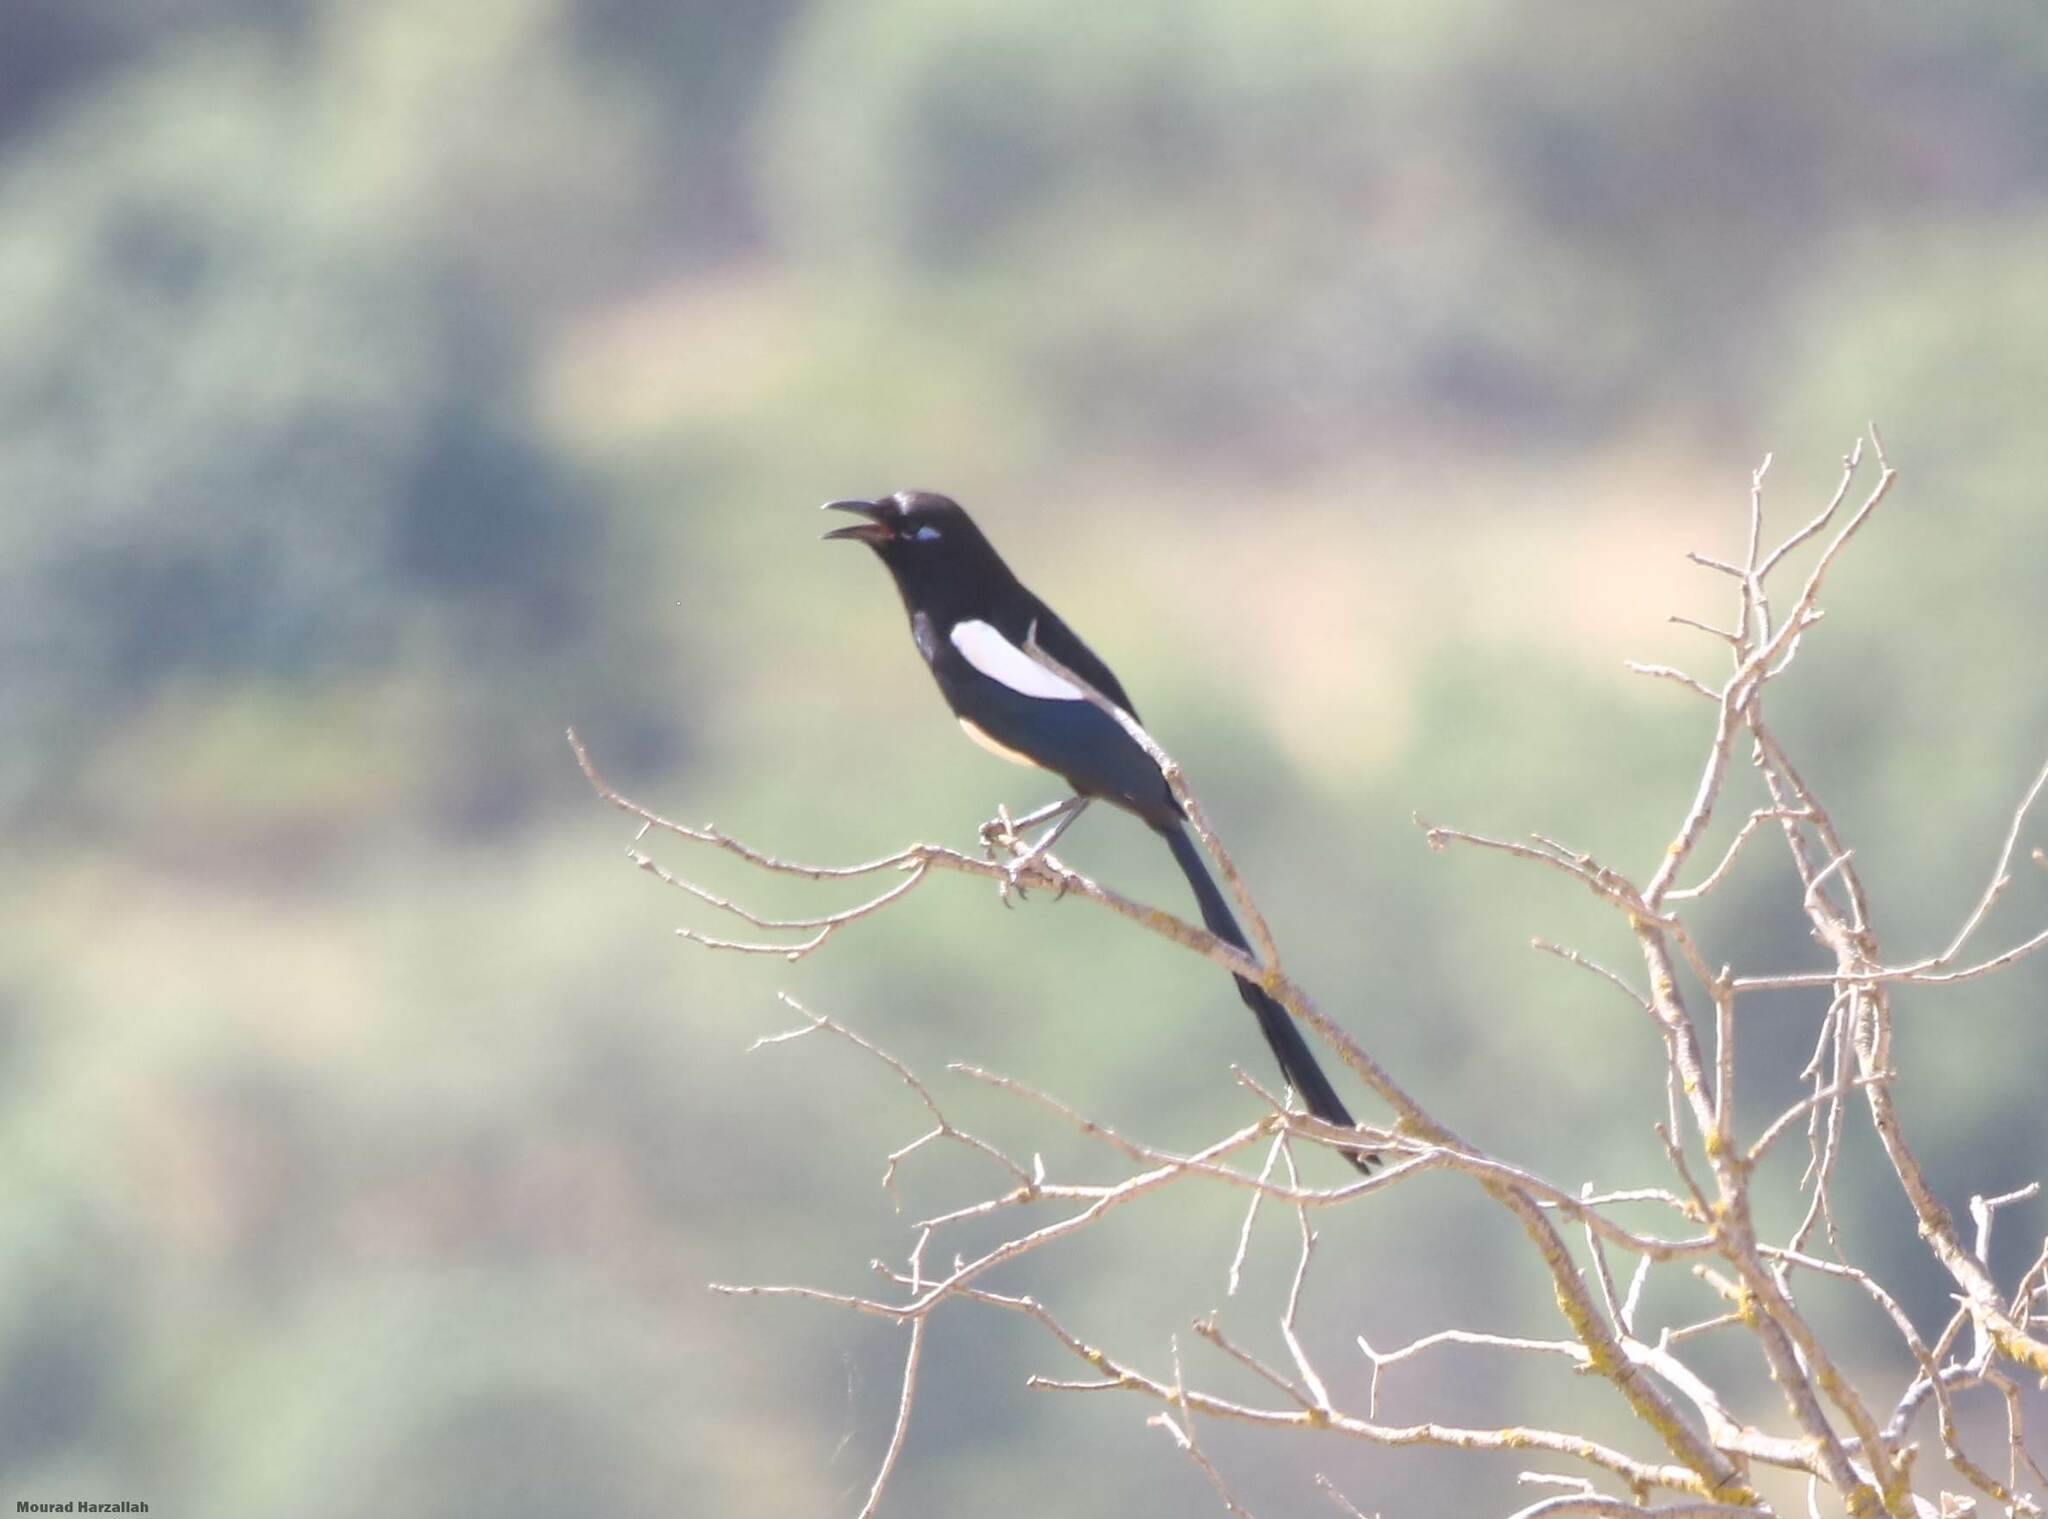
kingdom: Animalia
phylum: Chordata
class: Aves
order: Passeriformes
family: Corvidae
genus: Pica
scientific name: Pica mauritanica
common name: Maghreb magpie
